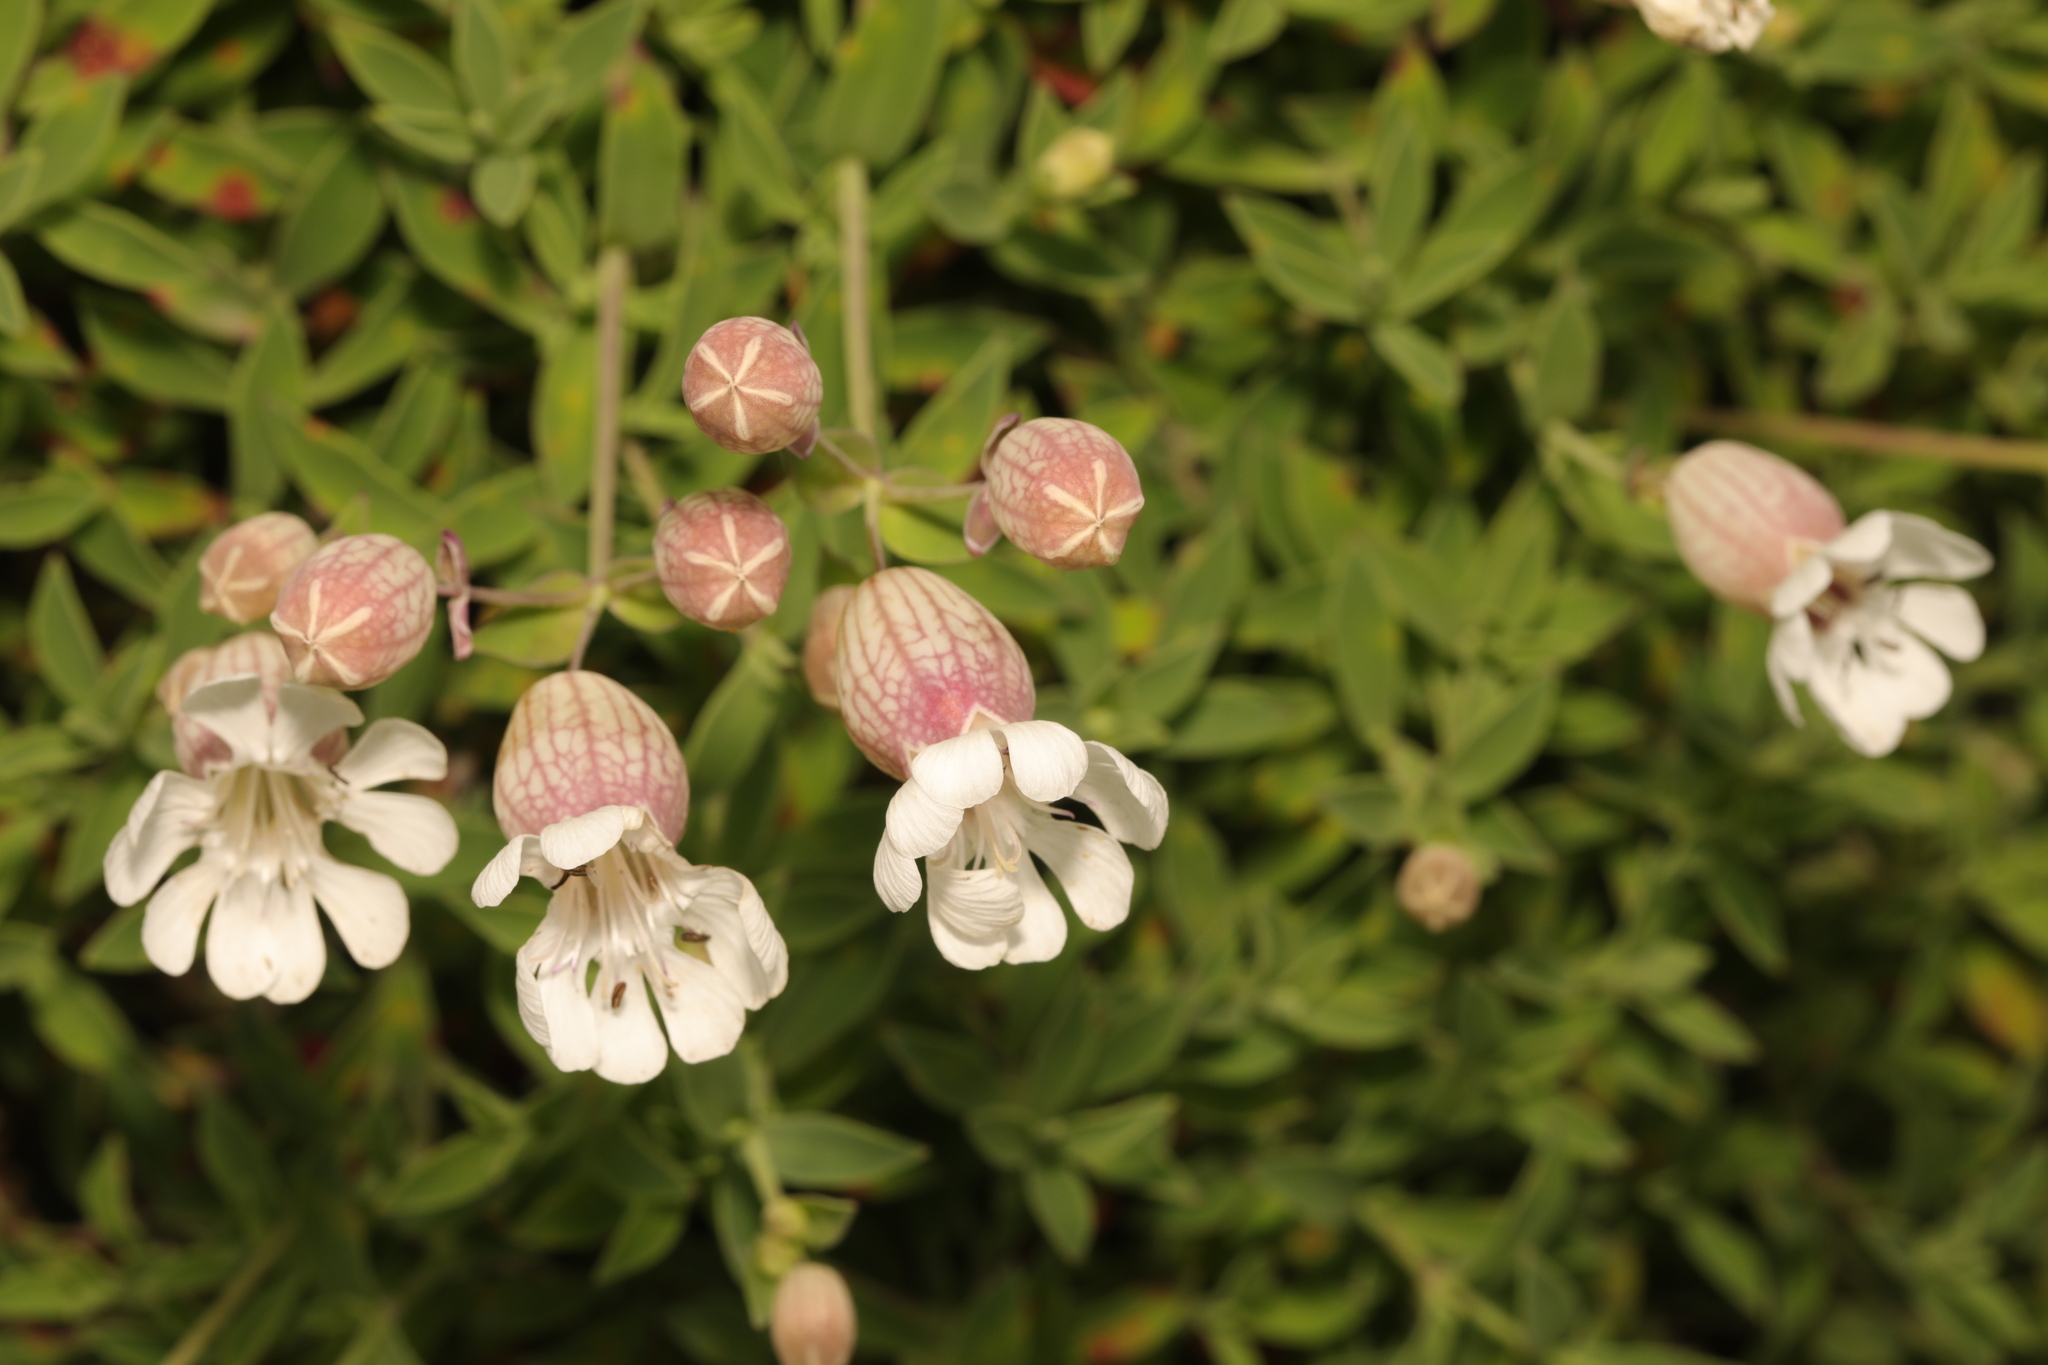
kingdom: Plantae
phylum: Tracheophyta
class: Magnoliopsida
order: Caryophyllales
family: Caryophyllaceae
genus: Silene
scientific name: Silene uniflora
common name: Sea campion
